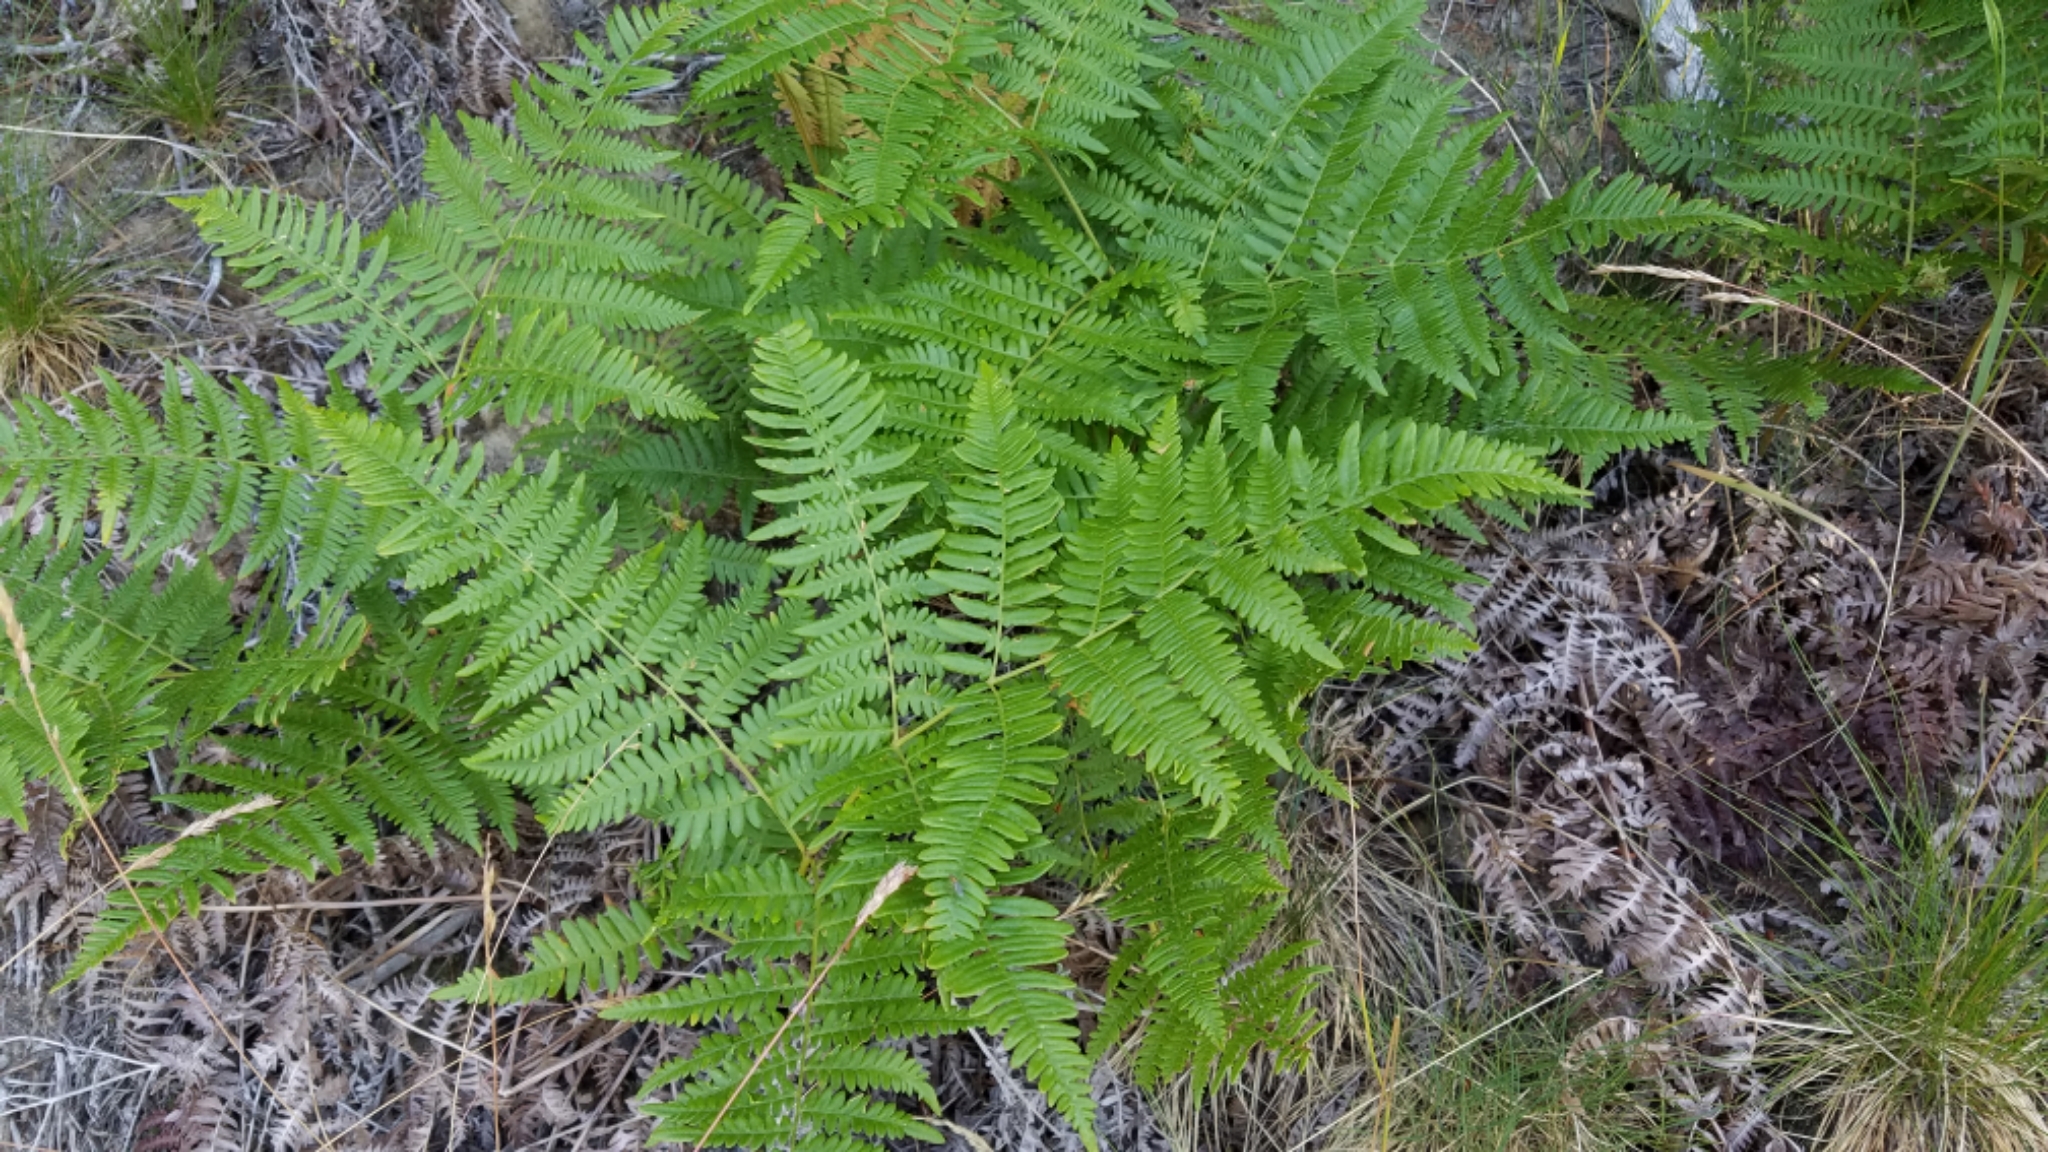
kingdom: Plantae
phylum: Tracheophyta
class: Polypodiopsida
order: Polypodiales
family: Dennstaedtiaceae
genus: Pteridium
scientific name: Pteridium aquilinum
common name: Bracken
